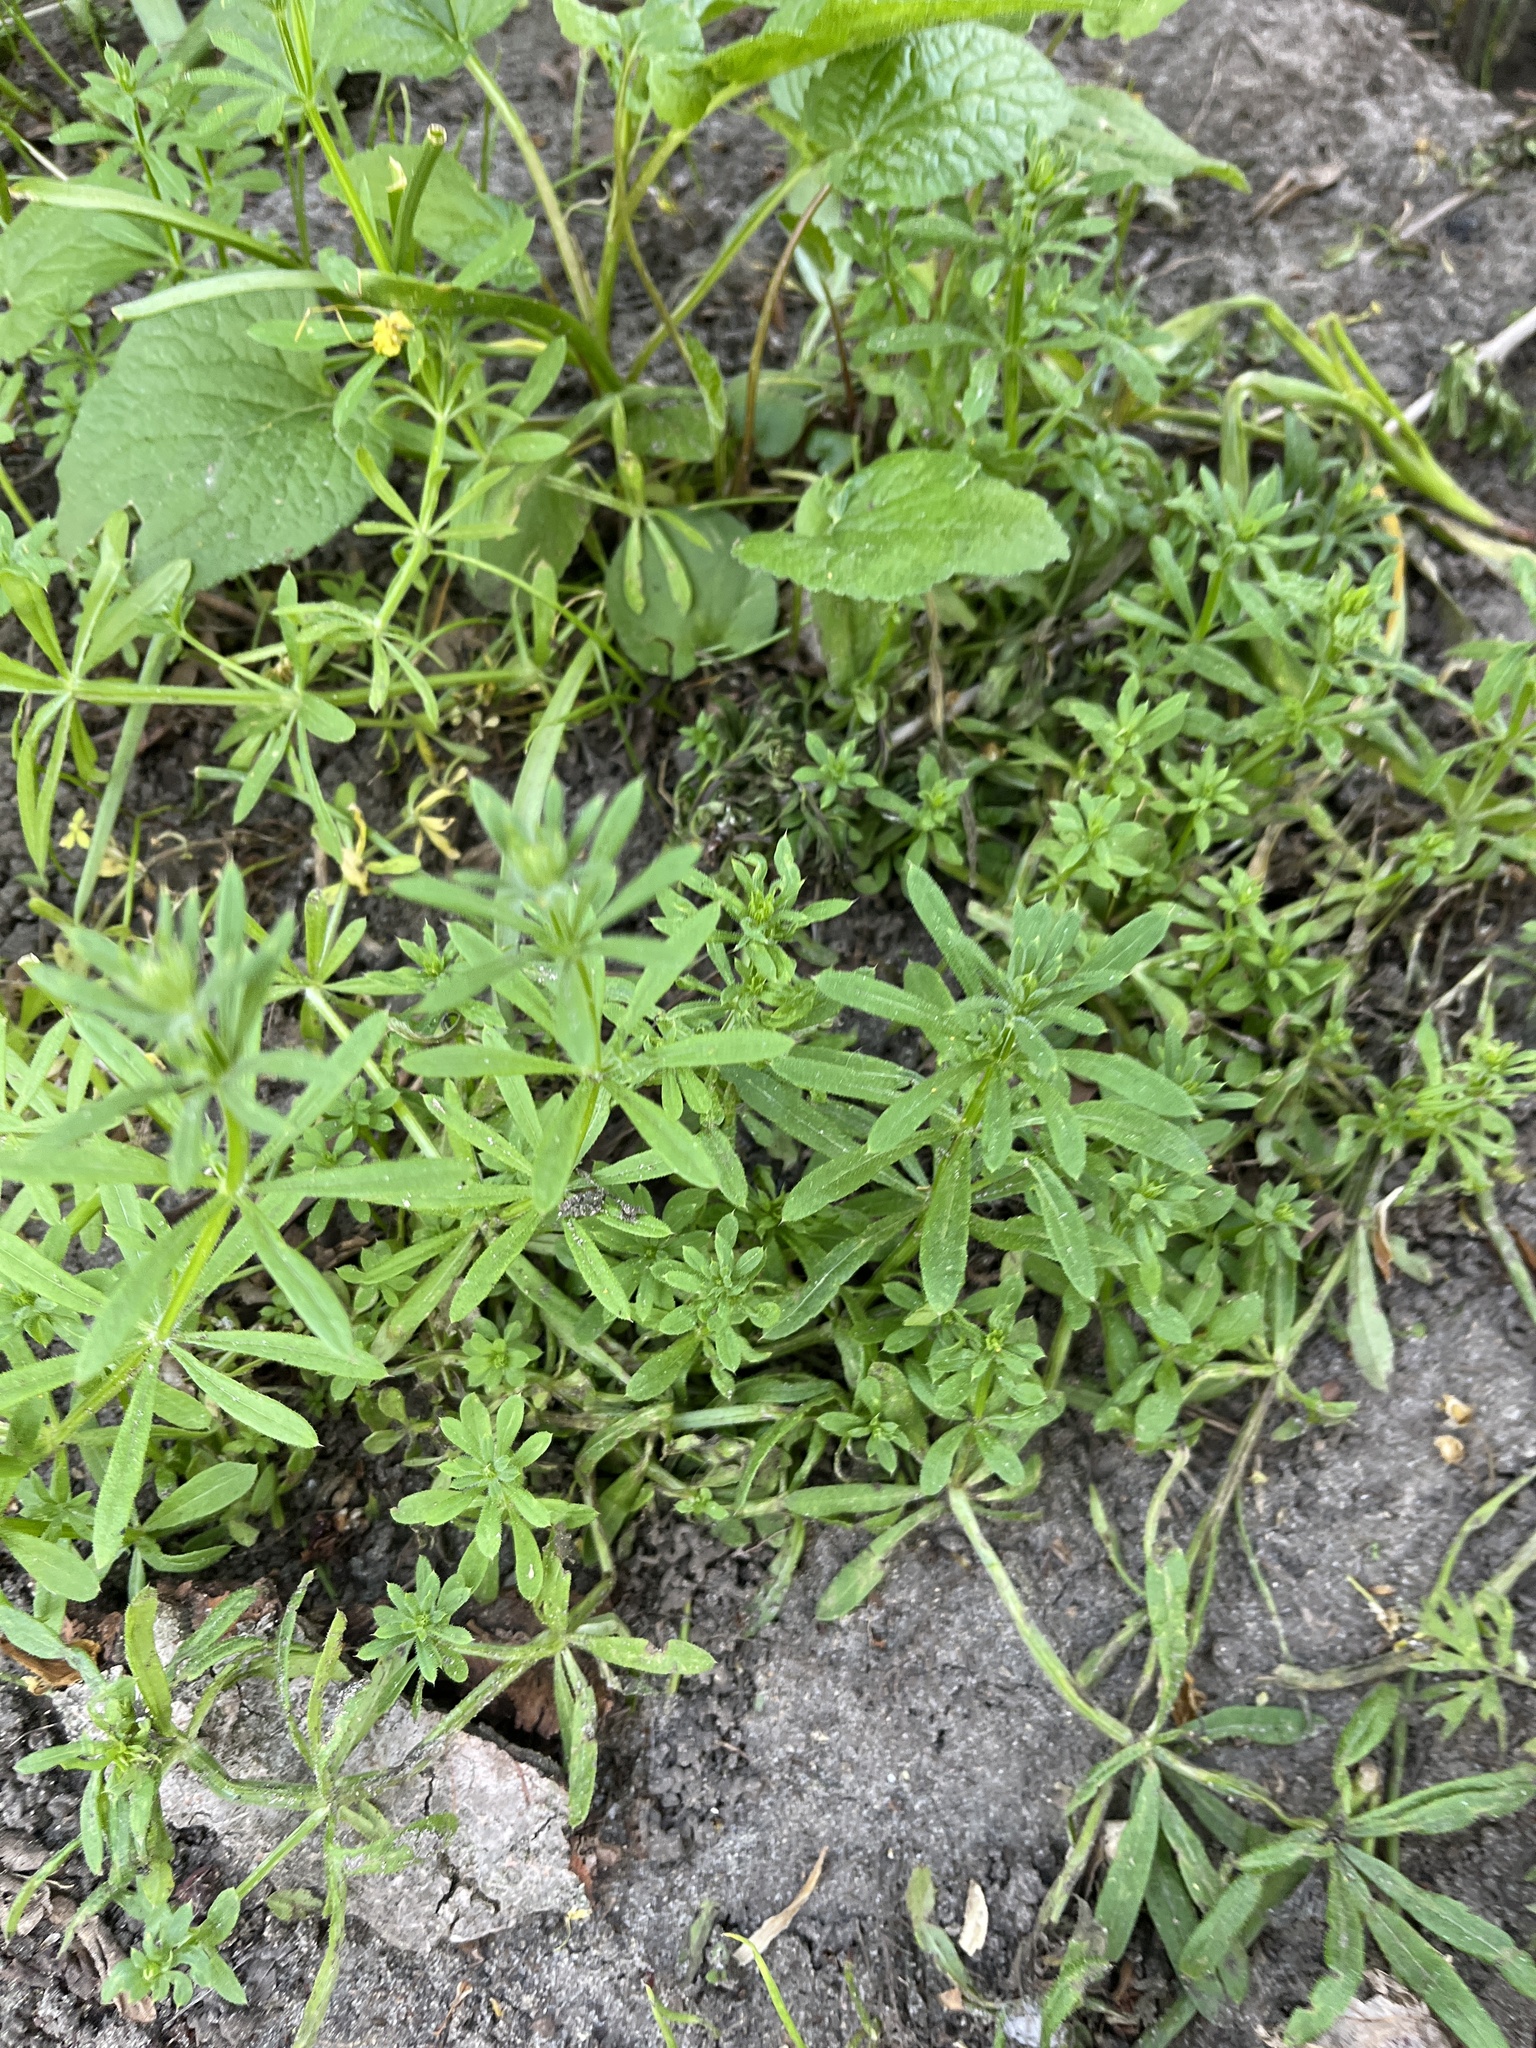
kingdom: Plantae
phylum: Tracheophyta
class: Magnoliopsida
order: Gentianales
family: Rubiaceae
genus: Galium
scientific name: Galium aparine
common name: Cleavers
